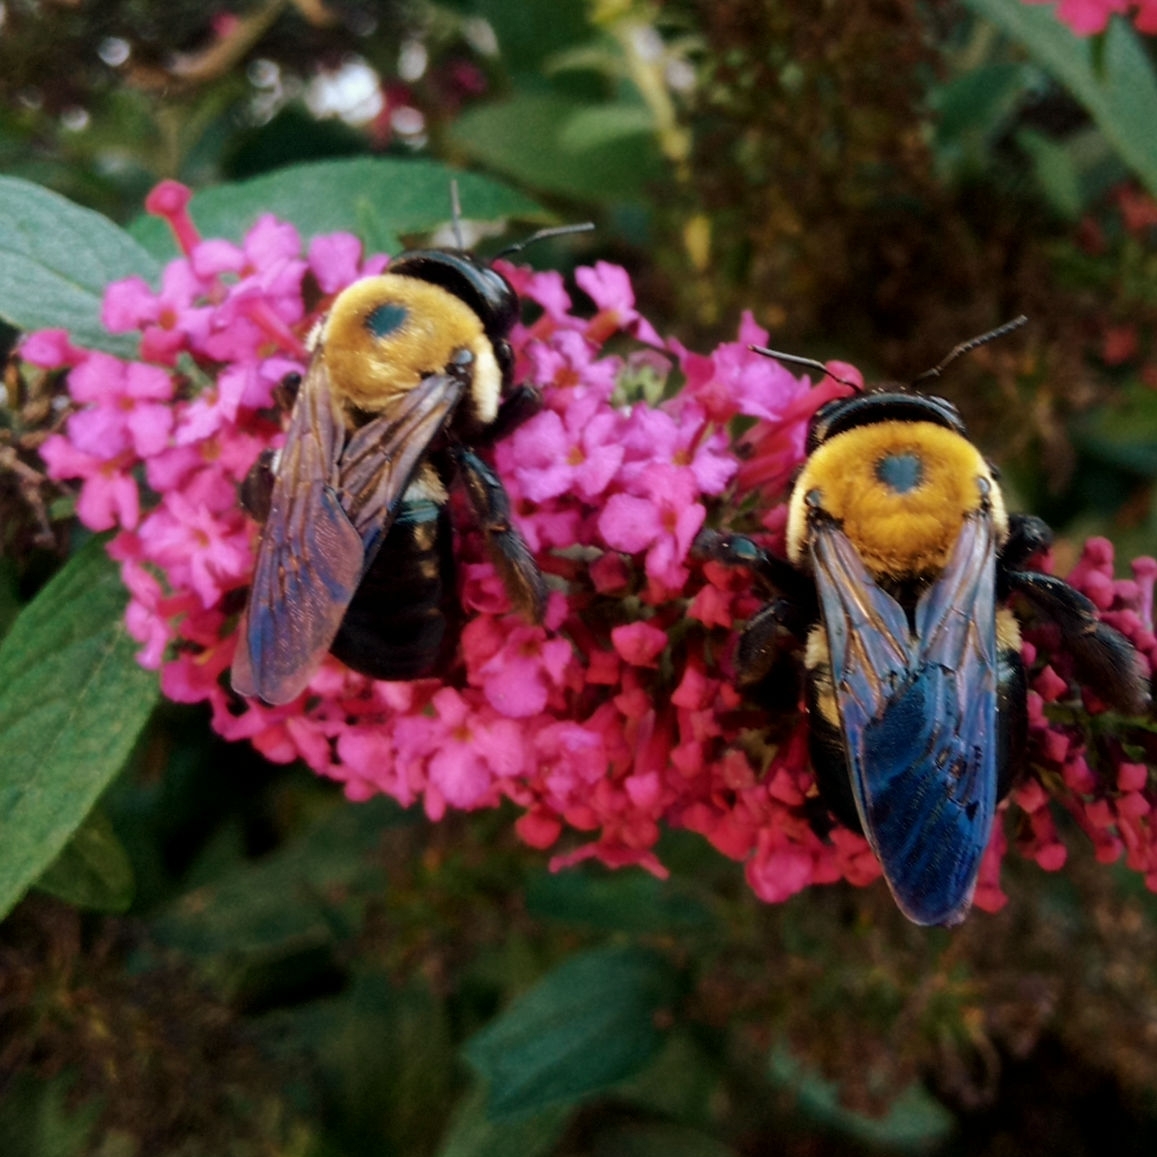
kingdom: Animalia
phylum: Arthropoda
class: Insecta
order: Hymenoptera
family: Apidae
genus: Xylocopa
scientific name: Xylocopa virginica
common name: Carpenter bee
